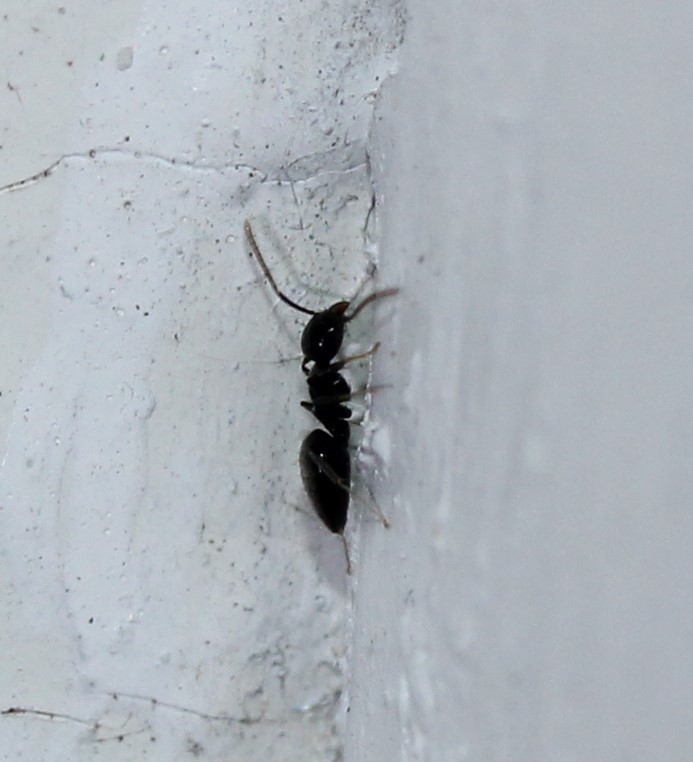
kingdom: Animalia
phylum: Arthropoda
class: Insecta
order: Hymenoptera
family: Formicidae
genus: Technomyrmex
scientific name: Technomyrmex difficilis
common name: Ant
